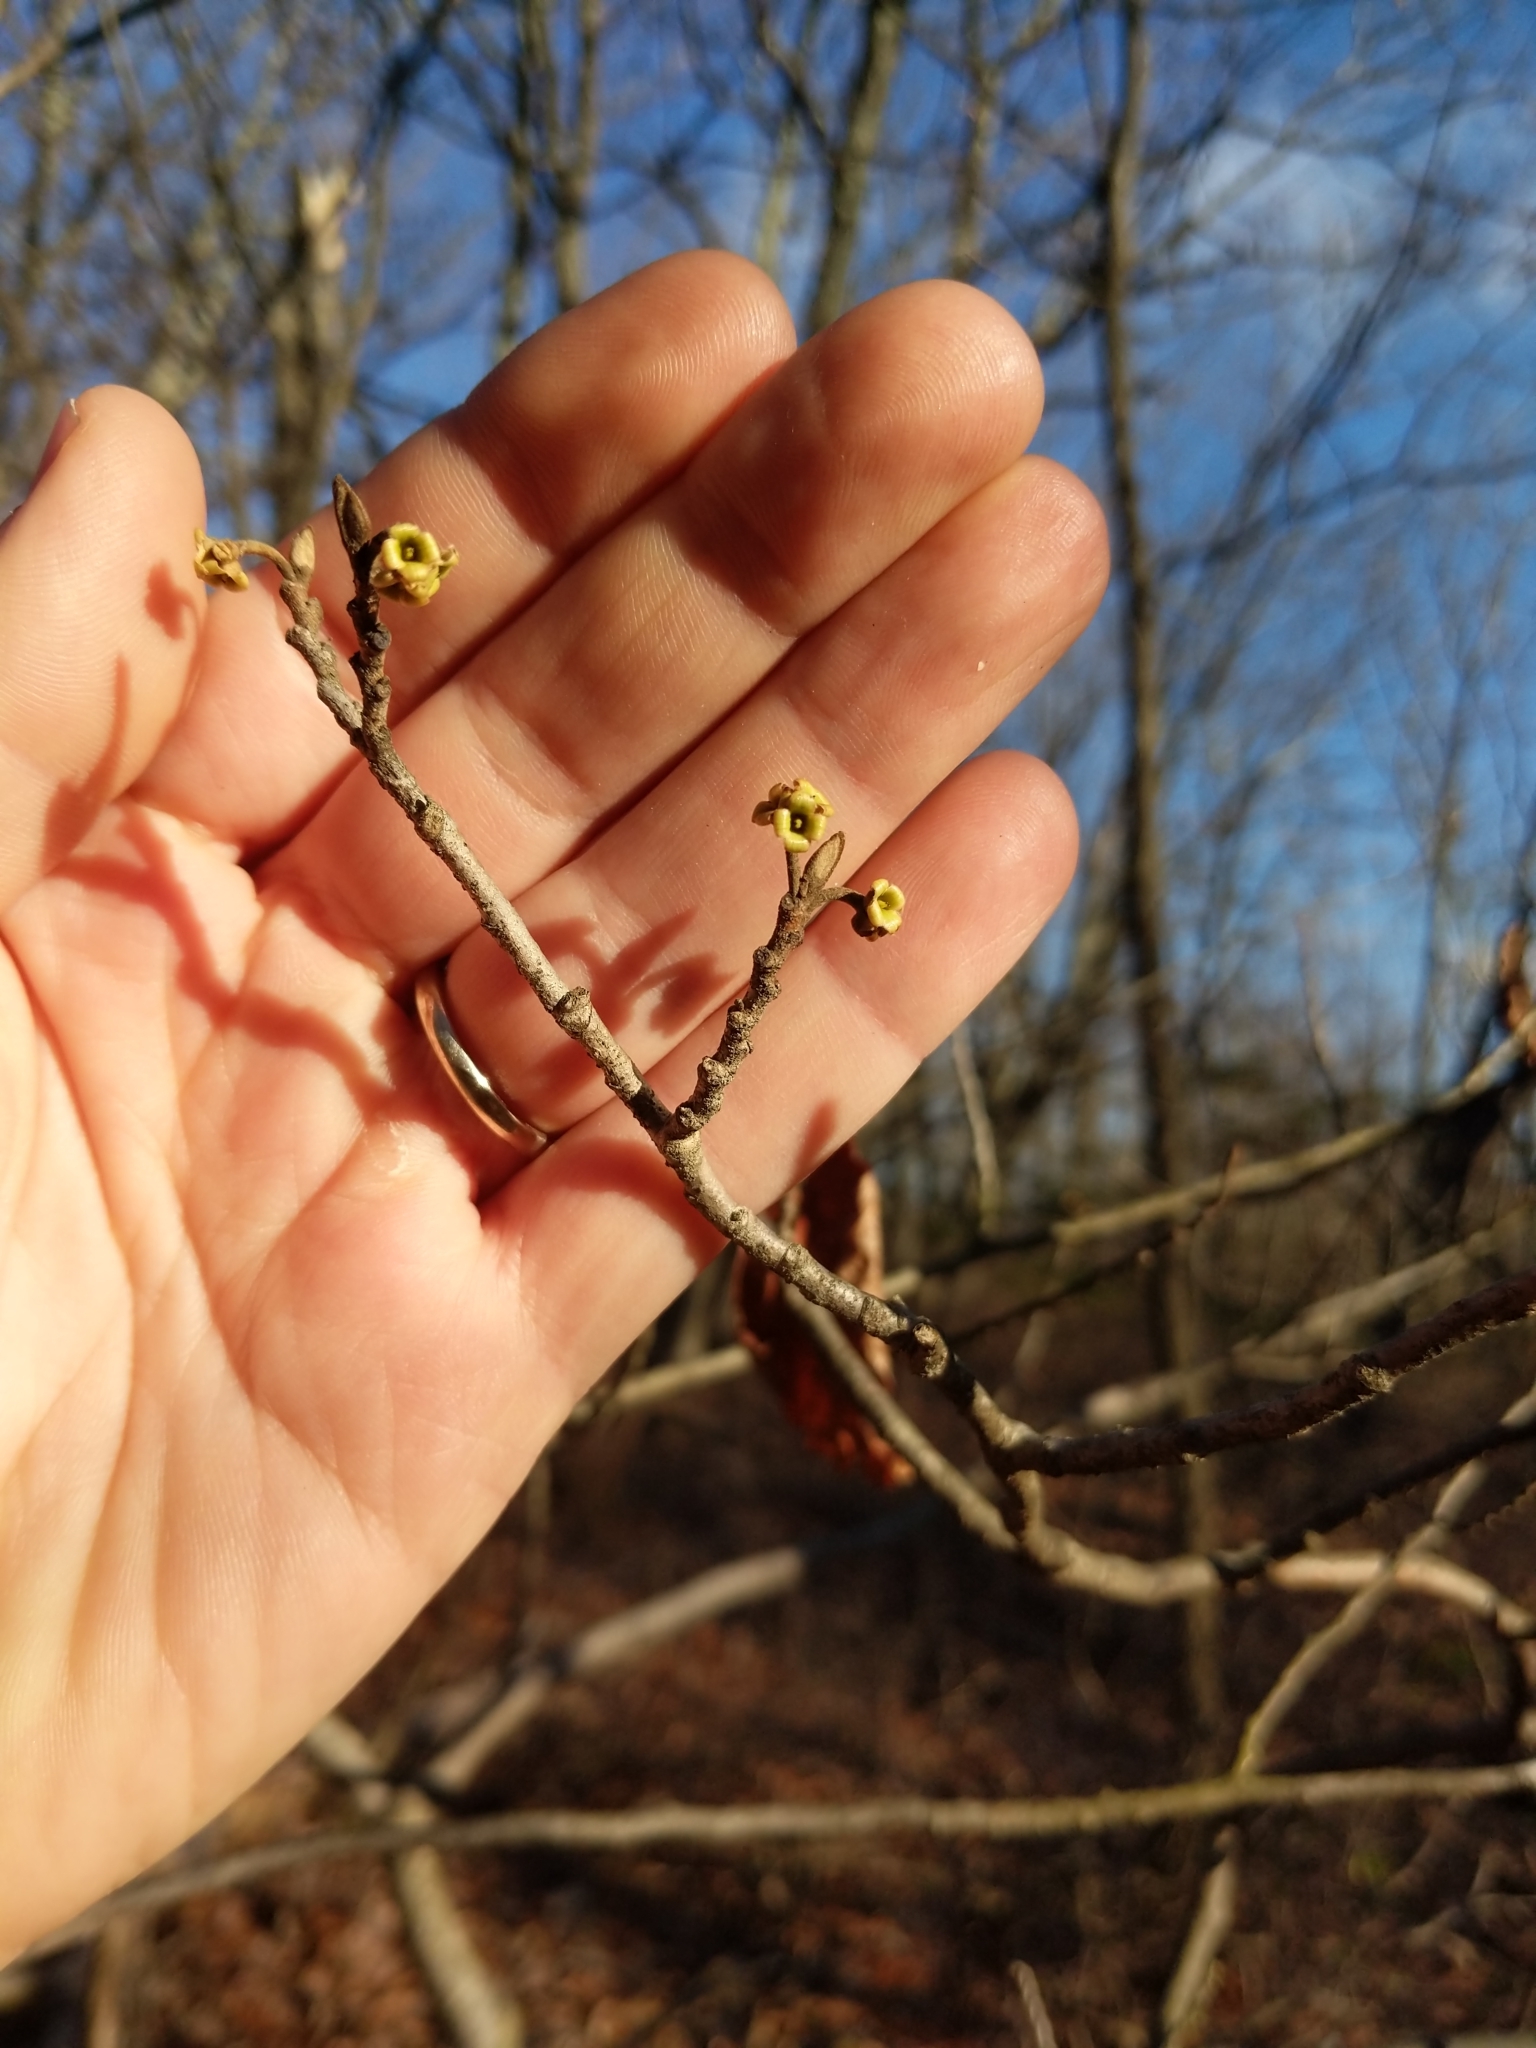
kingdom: Plantae
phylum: Tracheophyta
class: Magnoliopsida
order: Saxifragales
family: Hamamelidaceae
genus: Hamamelis
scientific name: Hamamelis virginiana
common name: Witch-hazel
